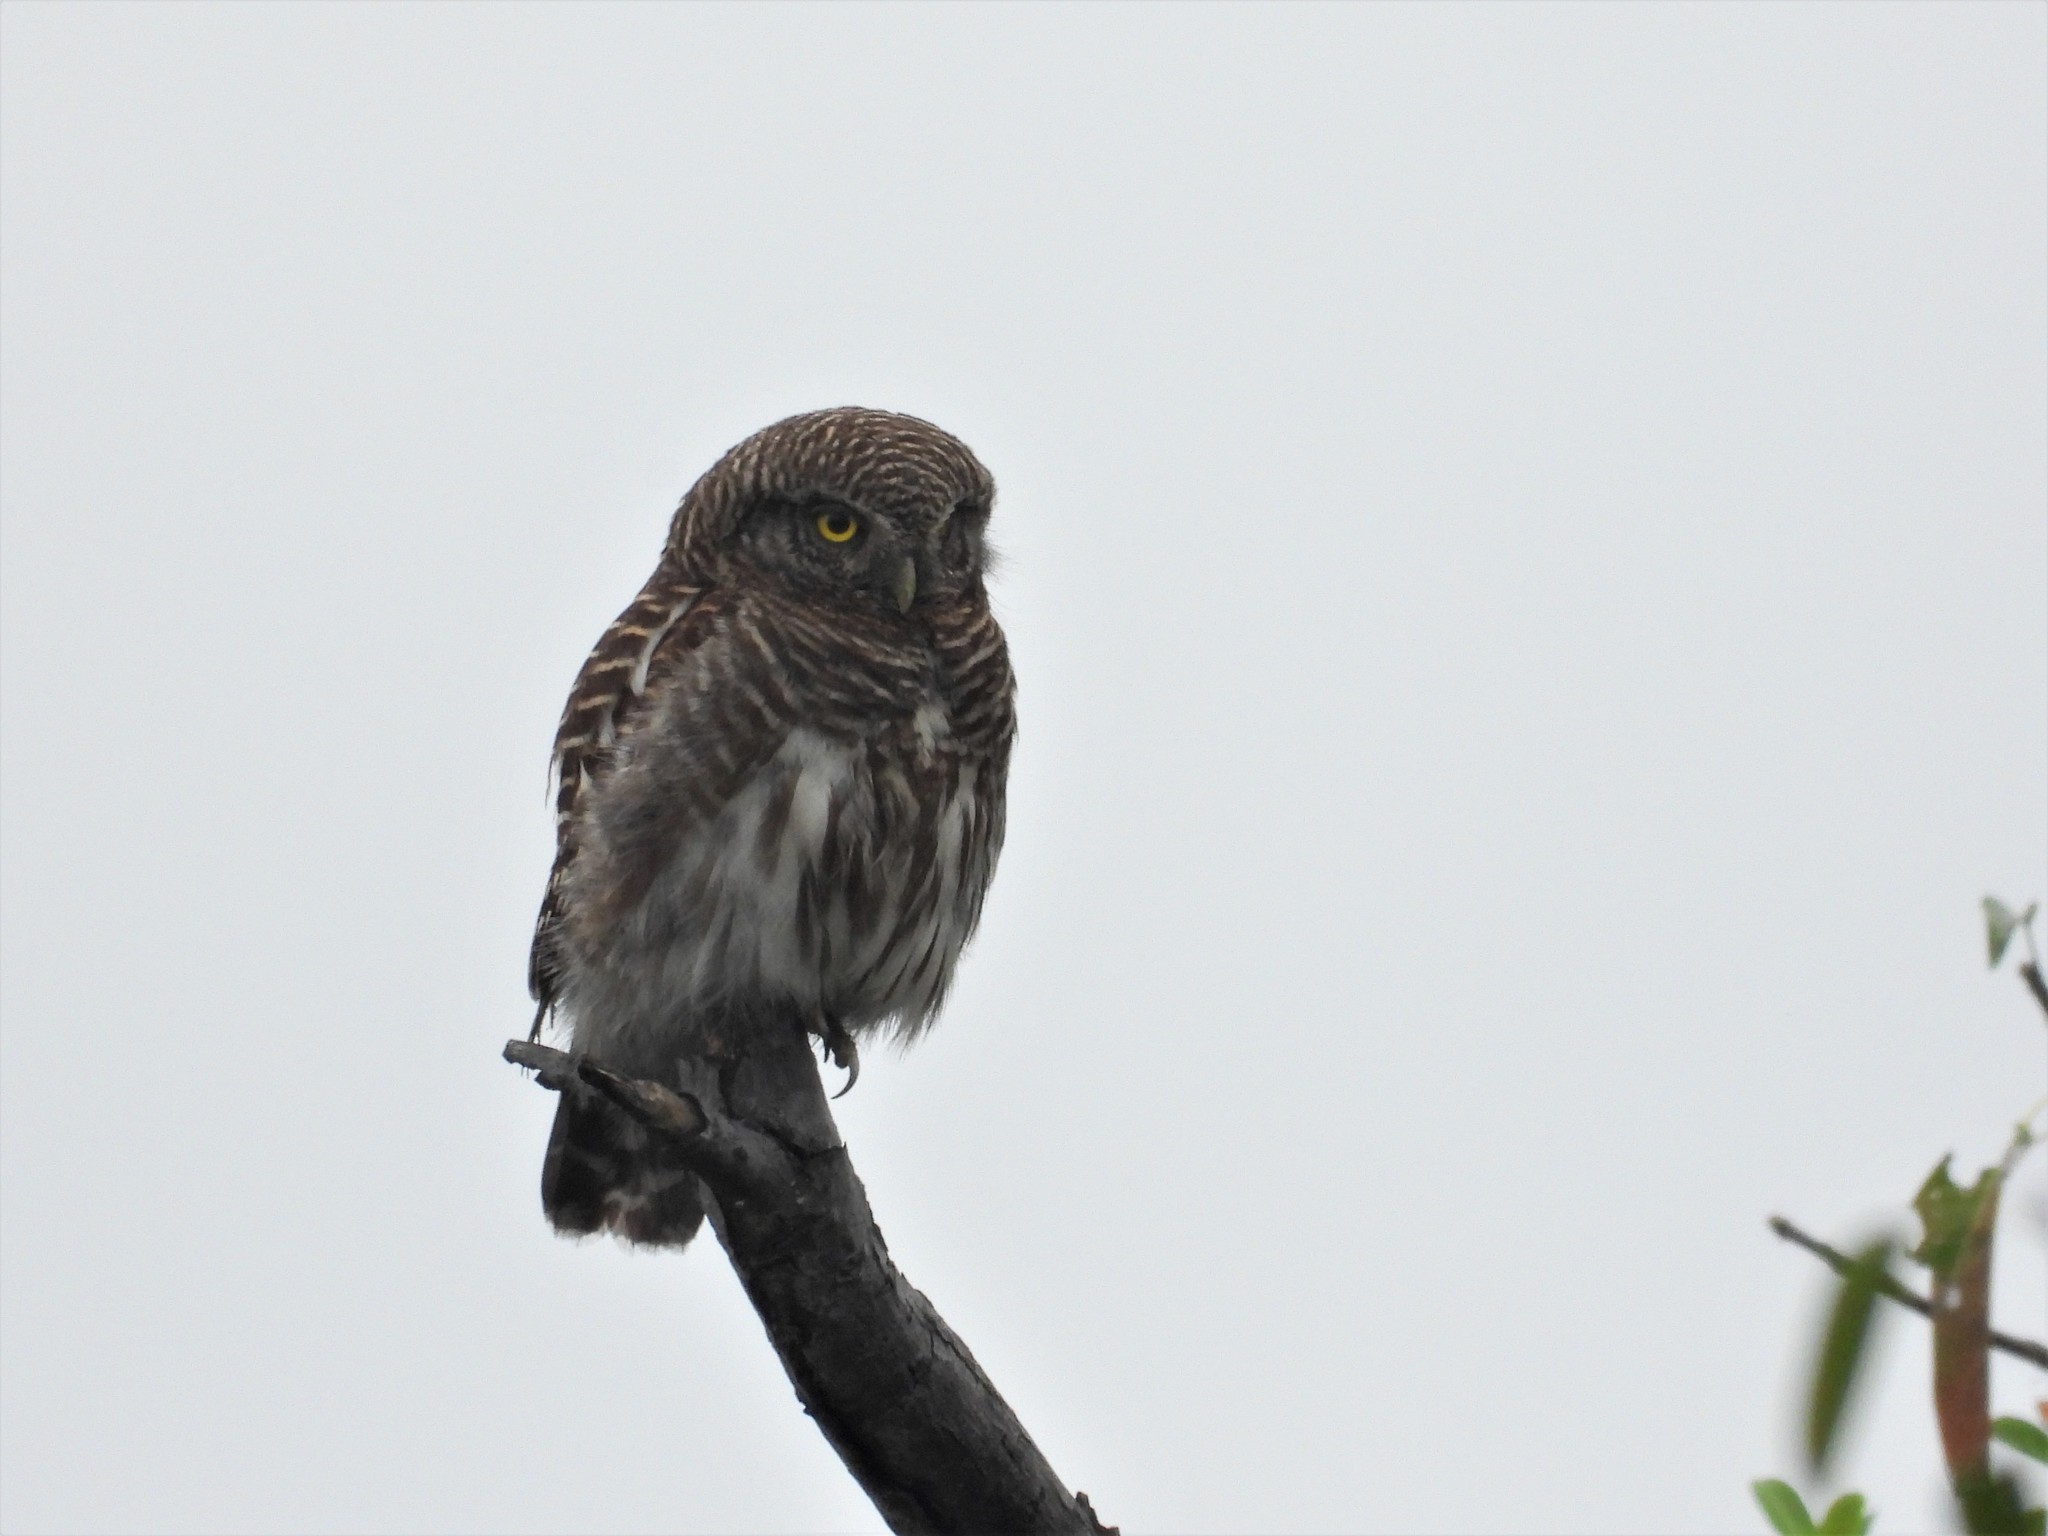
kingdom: Animalia
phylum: Chordata
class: Aves
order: Strigiformes
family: Strigidae
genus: Glaucidium
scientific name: Glaucidium cuculoides
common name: Asian barred owlet
